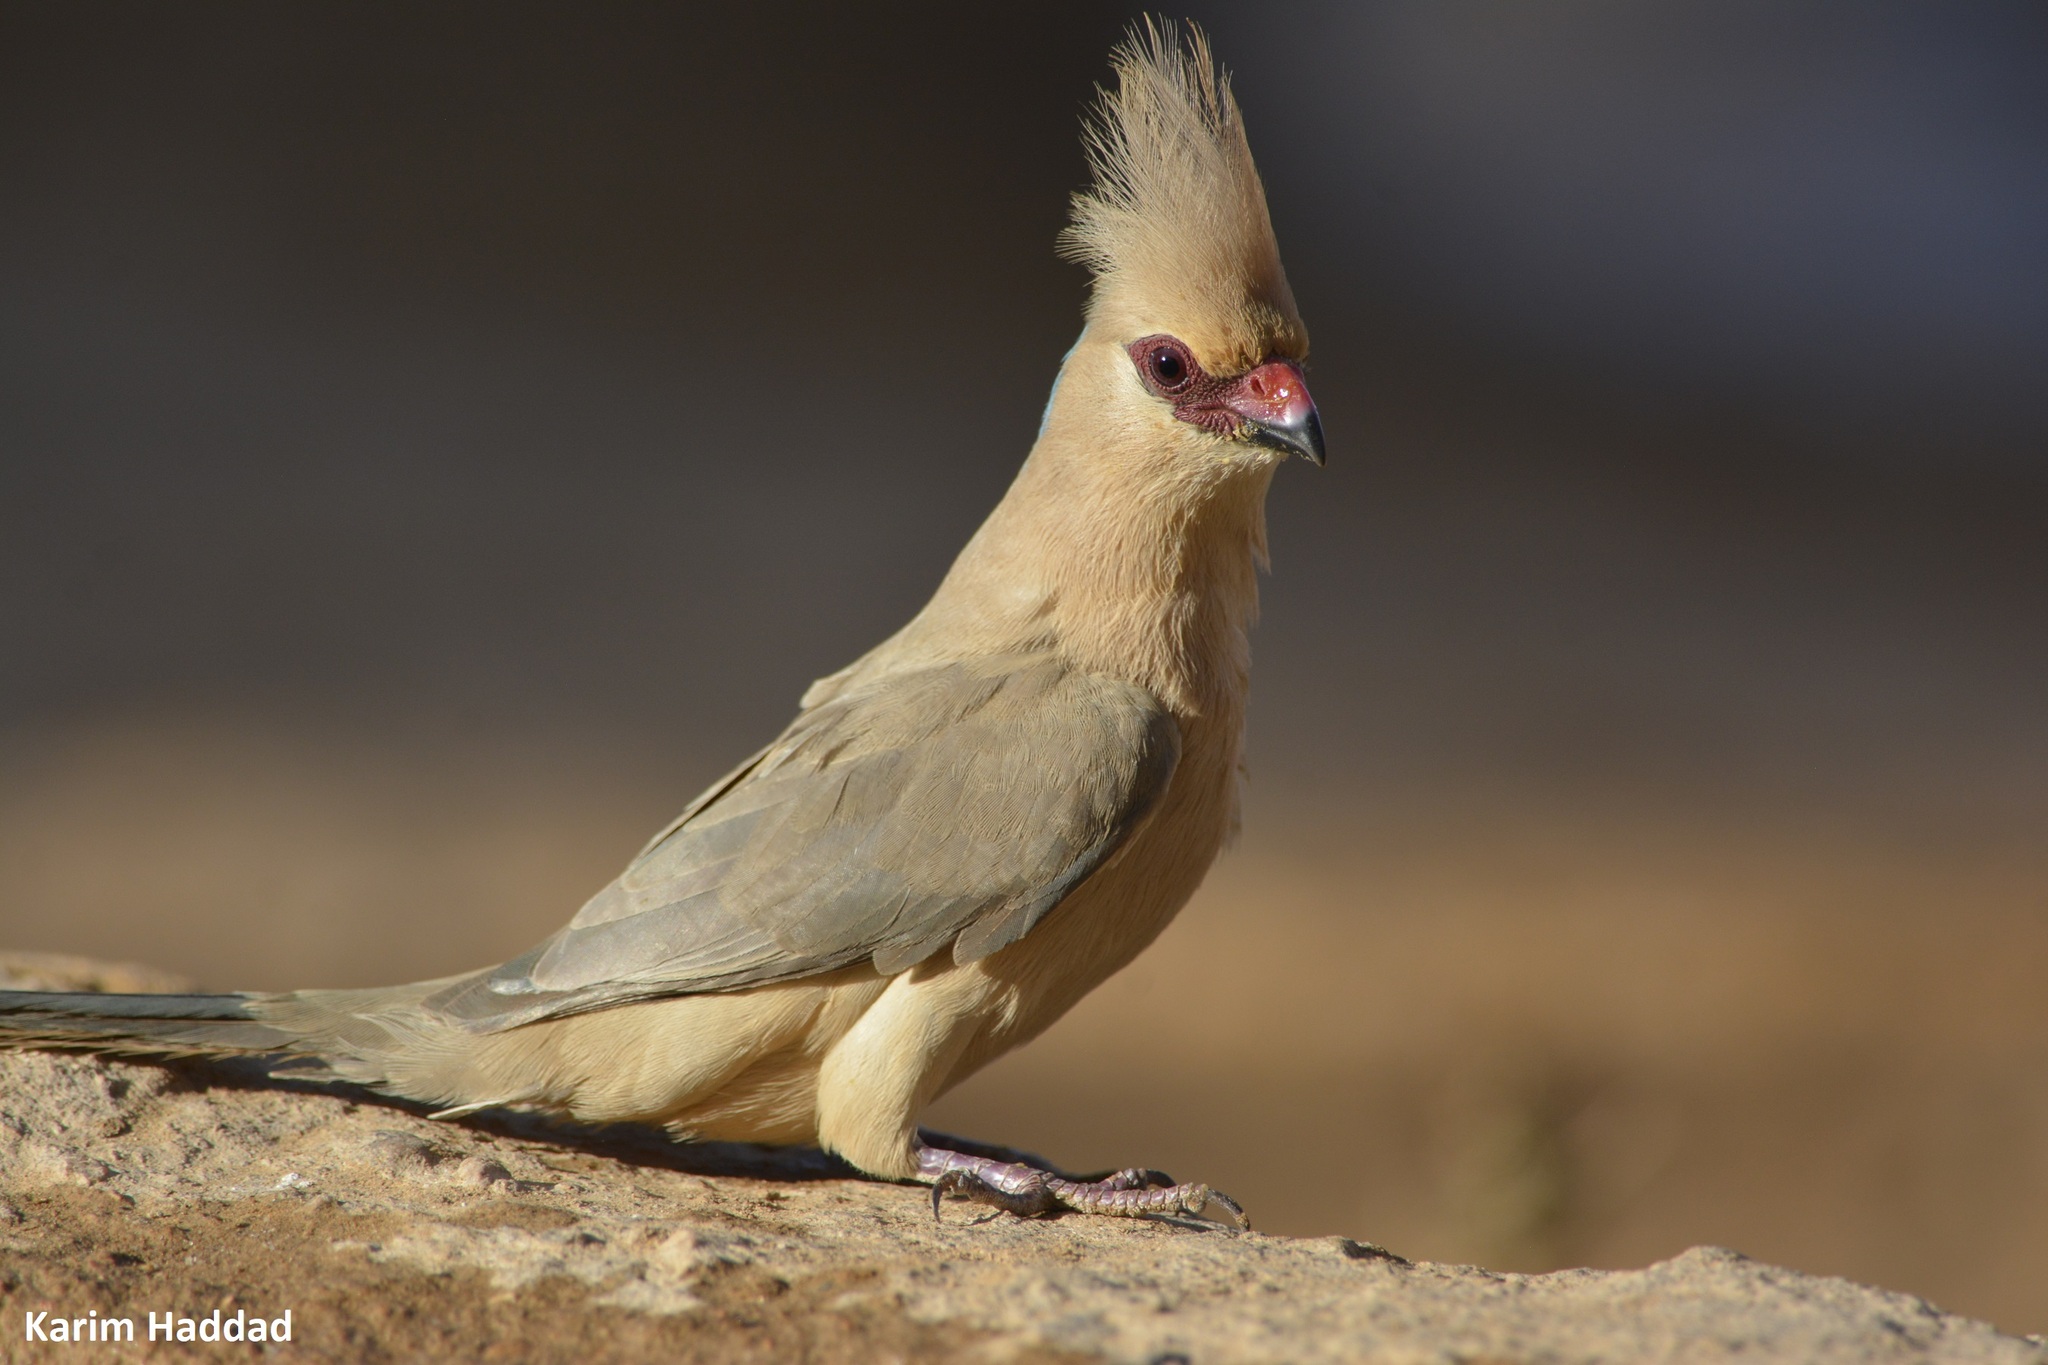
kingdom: Animalia
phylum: Chordata
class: Aves
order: Coliiformes
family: Coliidae
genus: Urocolius
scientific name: Urocolius macrourus
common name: Blue-naped mousebird
